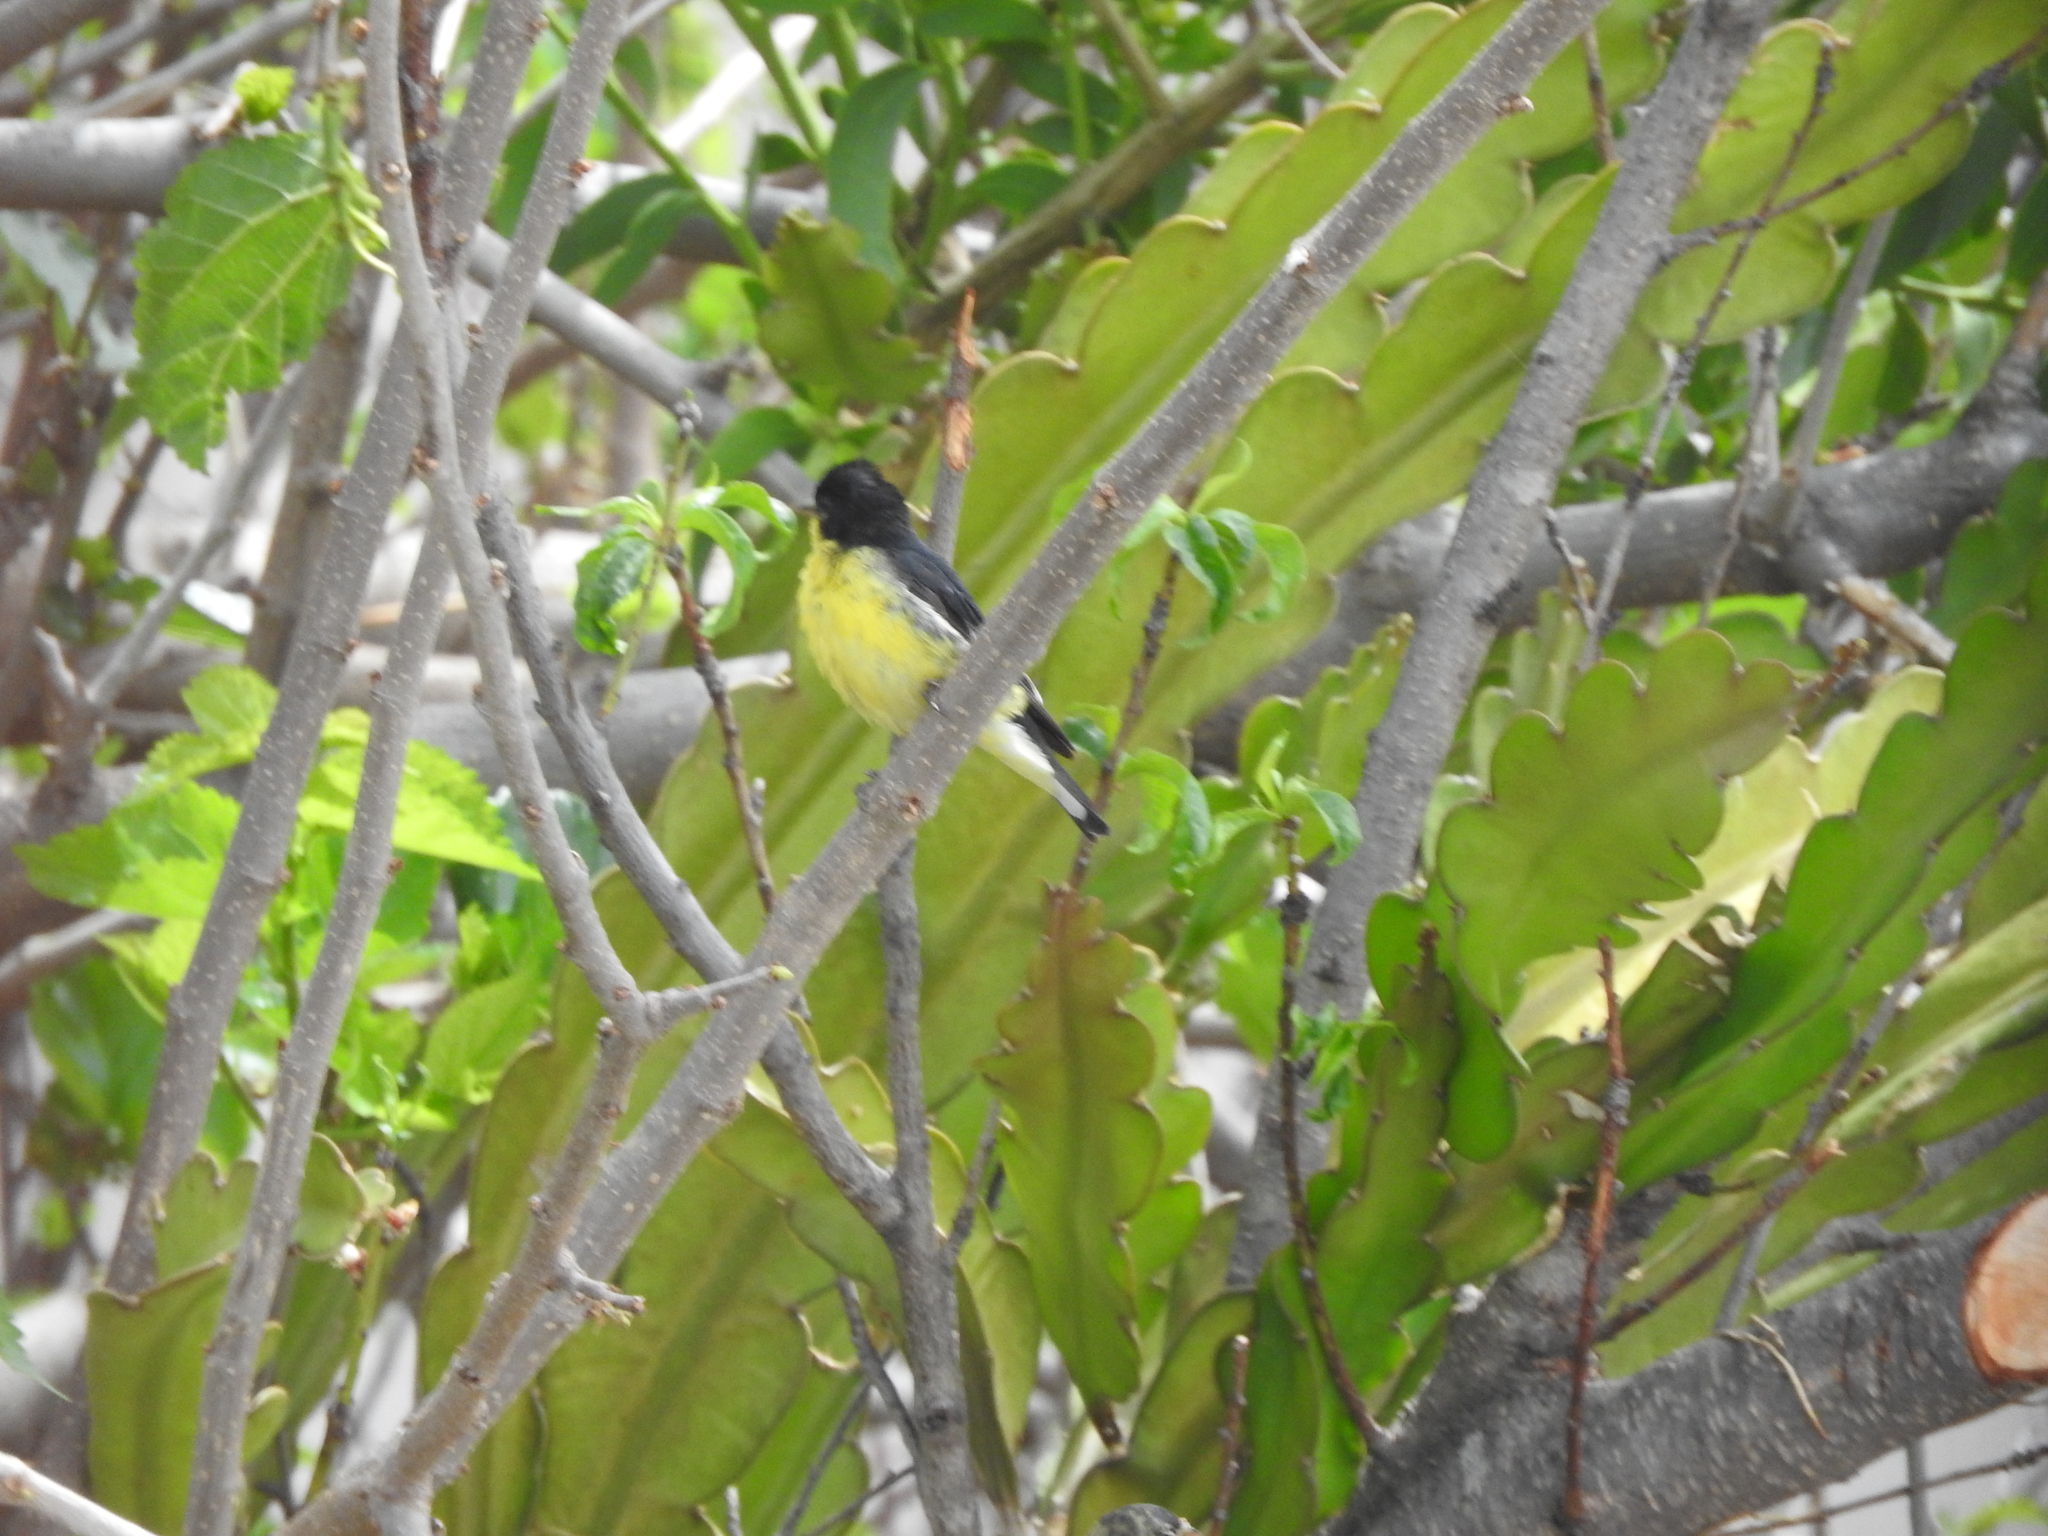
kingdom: Animalia
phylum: Chordata
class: Aves
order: Passeriformes
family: Fringillidae
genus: Spinus
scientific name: Spinus psaltria
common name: Lesser goldfinch
